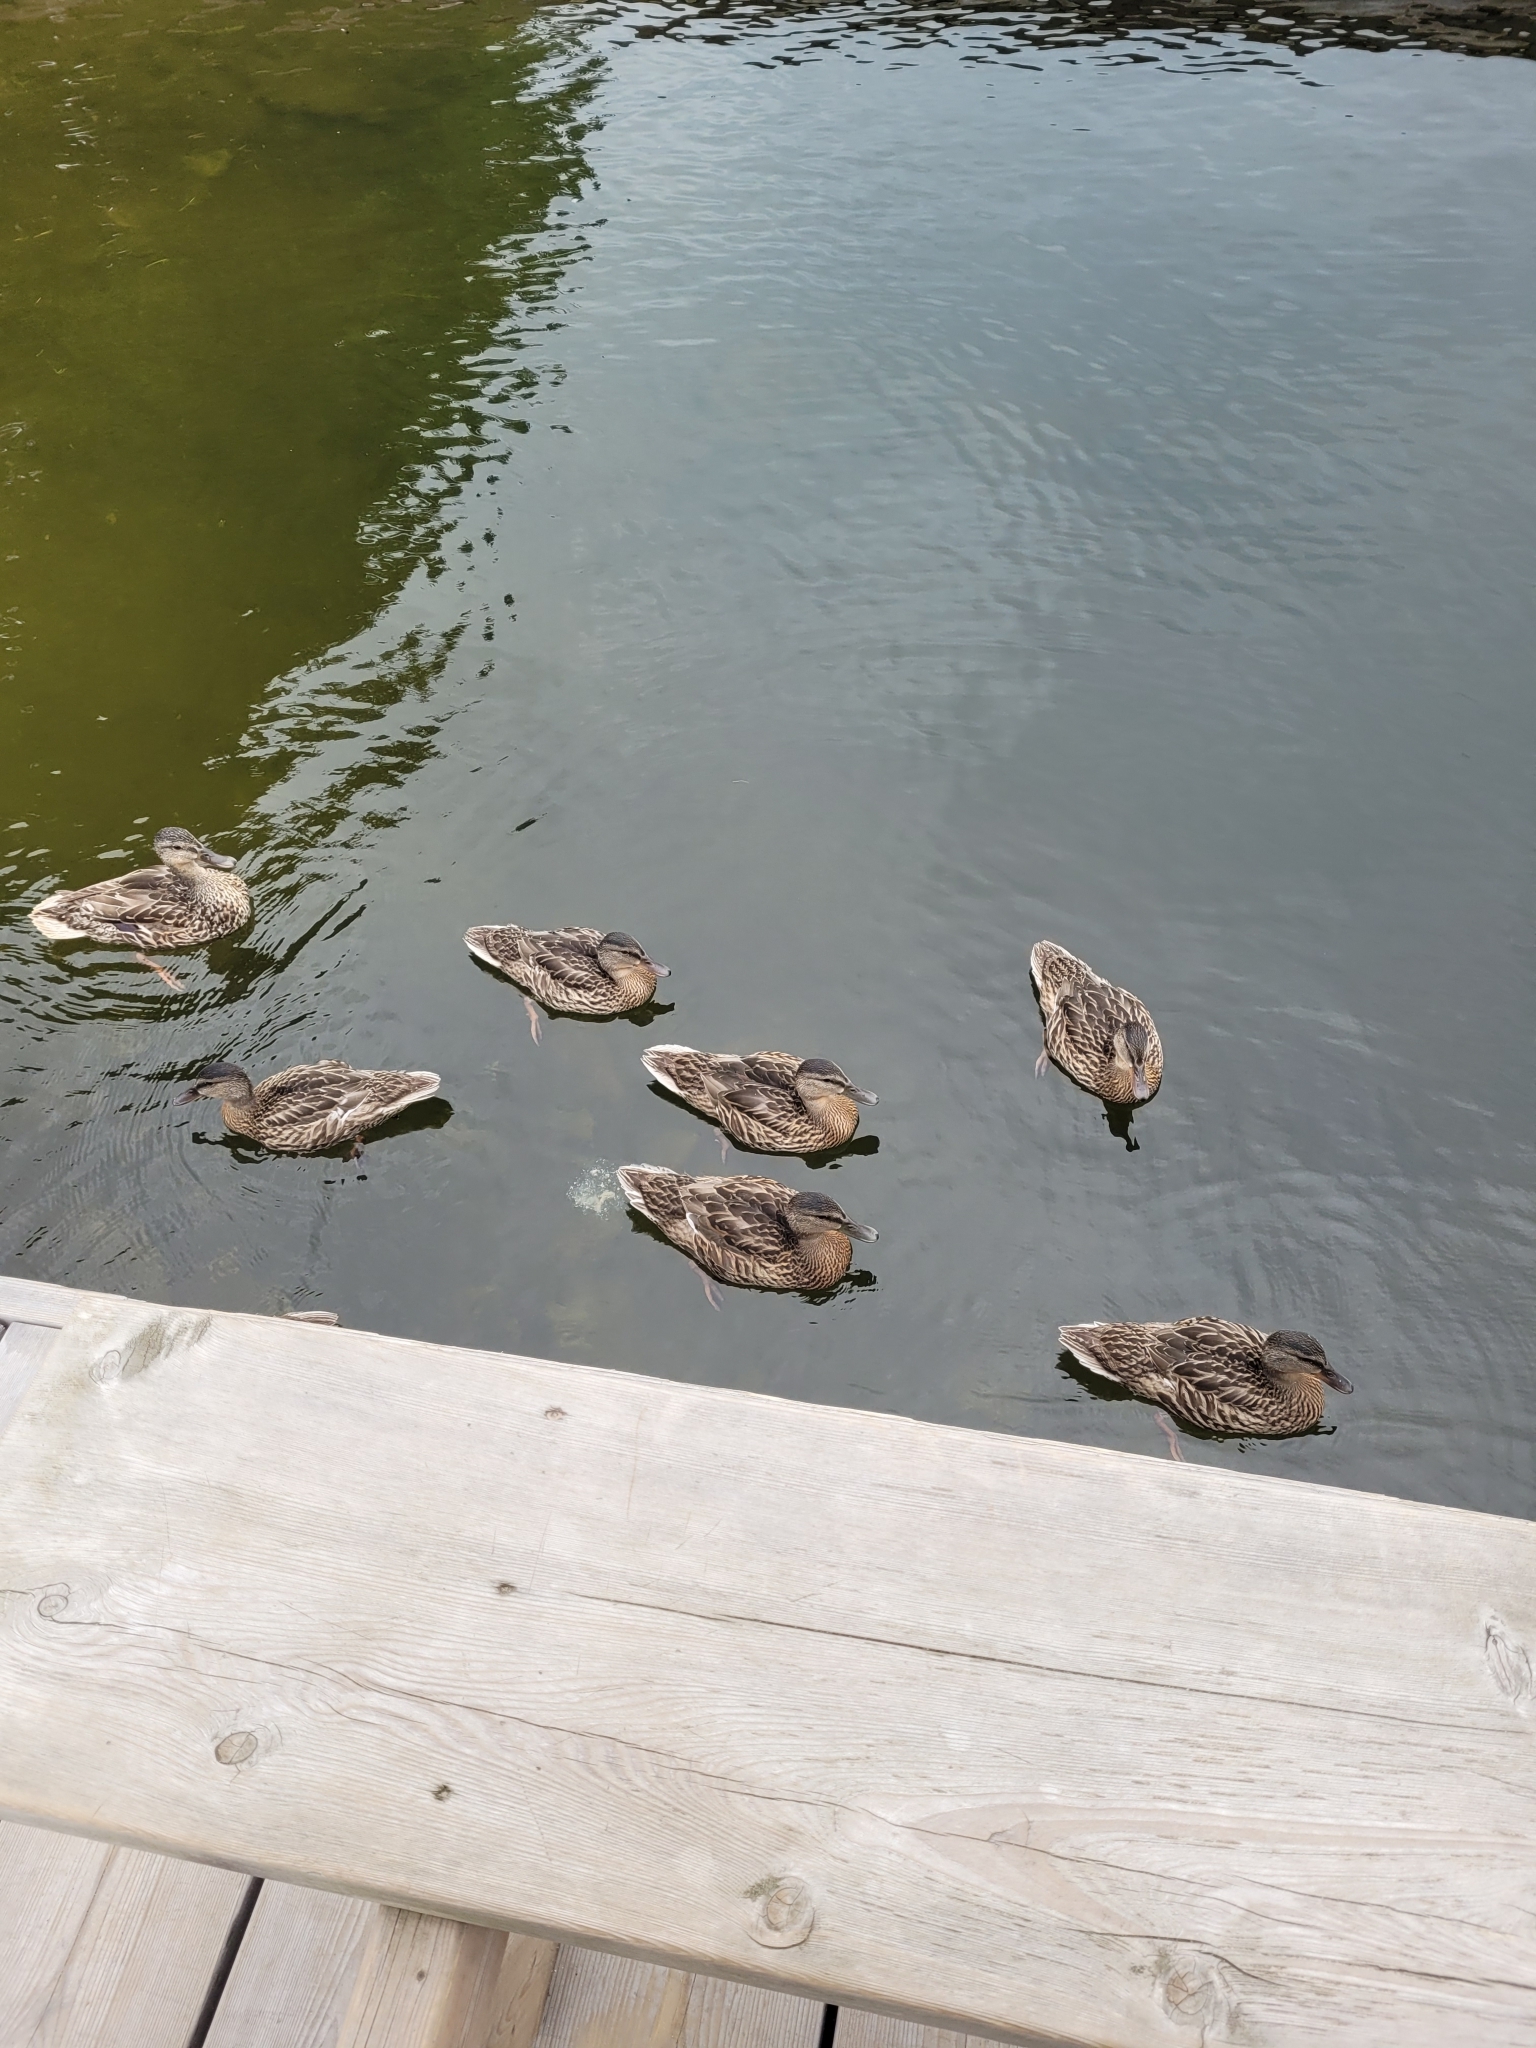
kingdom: Animalia
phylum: Chordata
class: Aves
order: Anseriformes
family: Anatidae
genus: Anas
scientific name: Anas platyrhynchos
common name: Mallard
